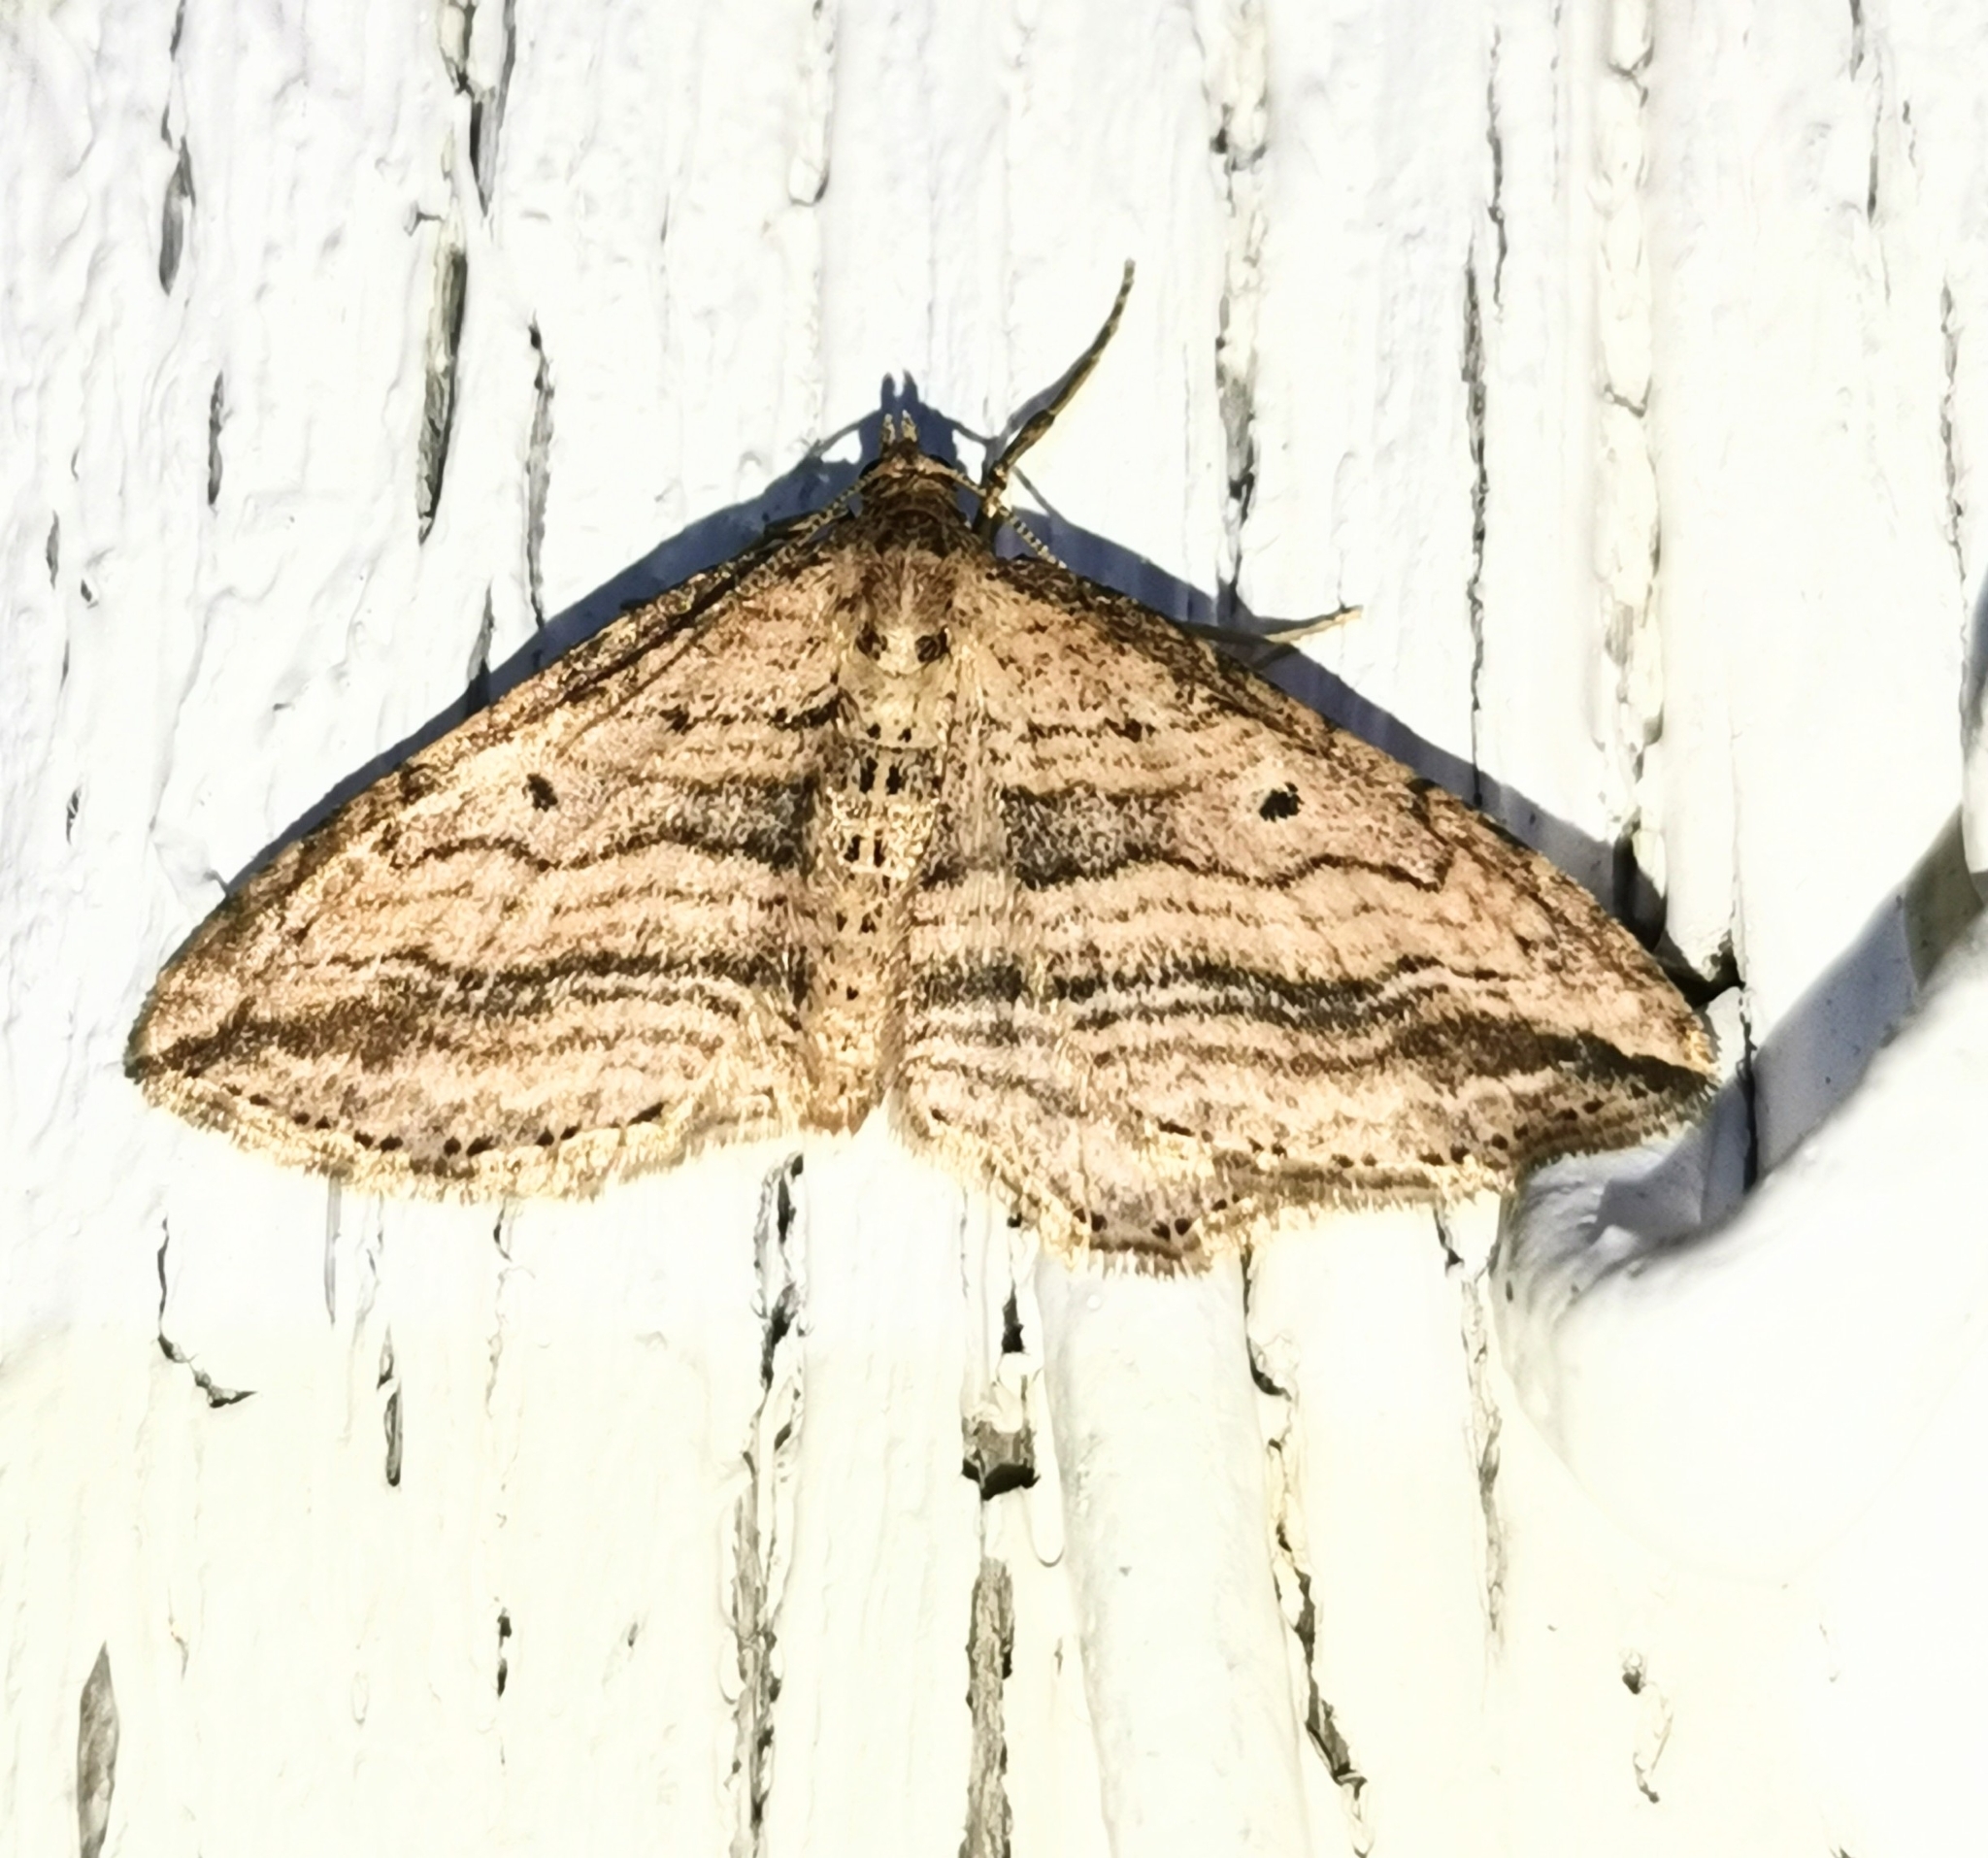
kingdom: Animalia
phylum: Arthropoda
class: Insecta
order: Lepidoptera
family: Geometridae
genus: Orthonama
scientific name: Orthonama vittata
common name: Oblique carpet
